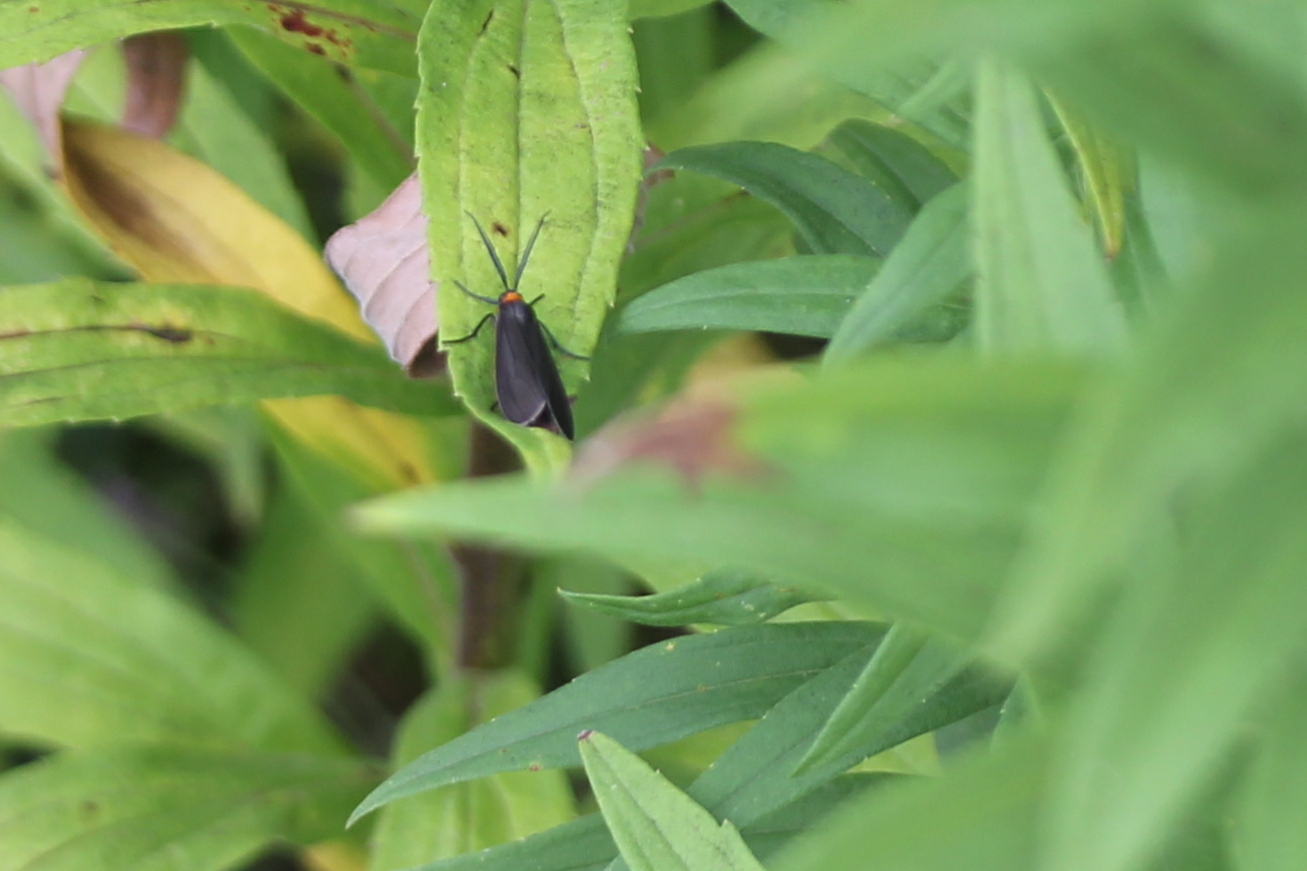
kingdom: Animalia
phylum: Arthropoda
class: Insecta
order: Lepidoptera
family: Erebidae
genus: Cisseps
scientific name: Cisseps fulvicollis
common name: Yellow-collared scape moth
